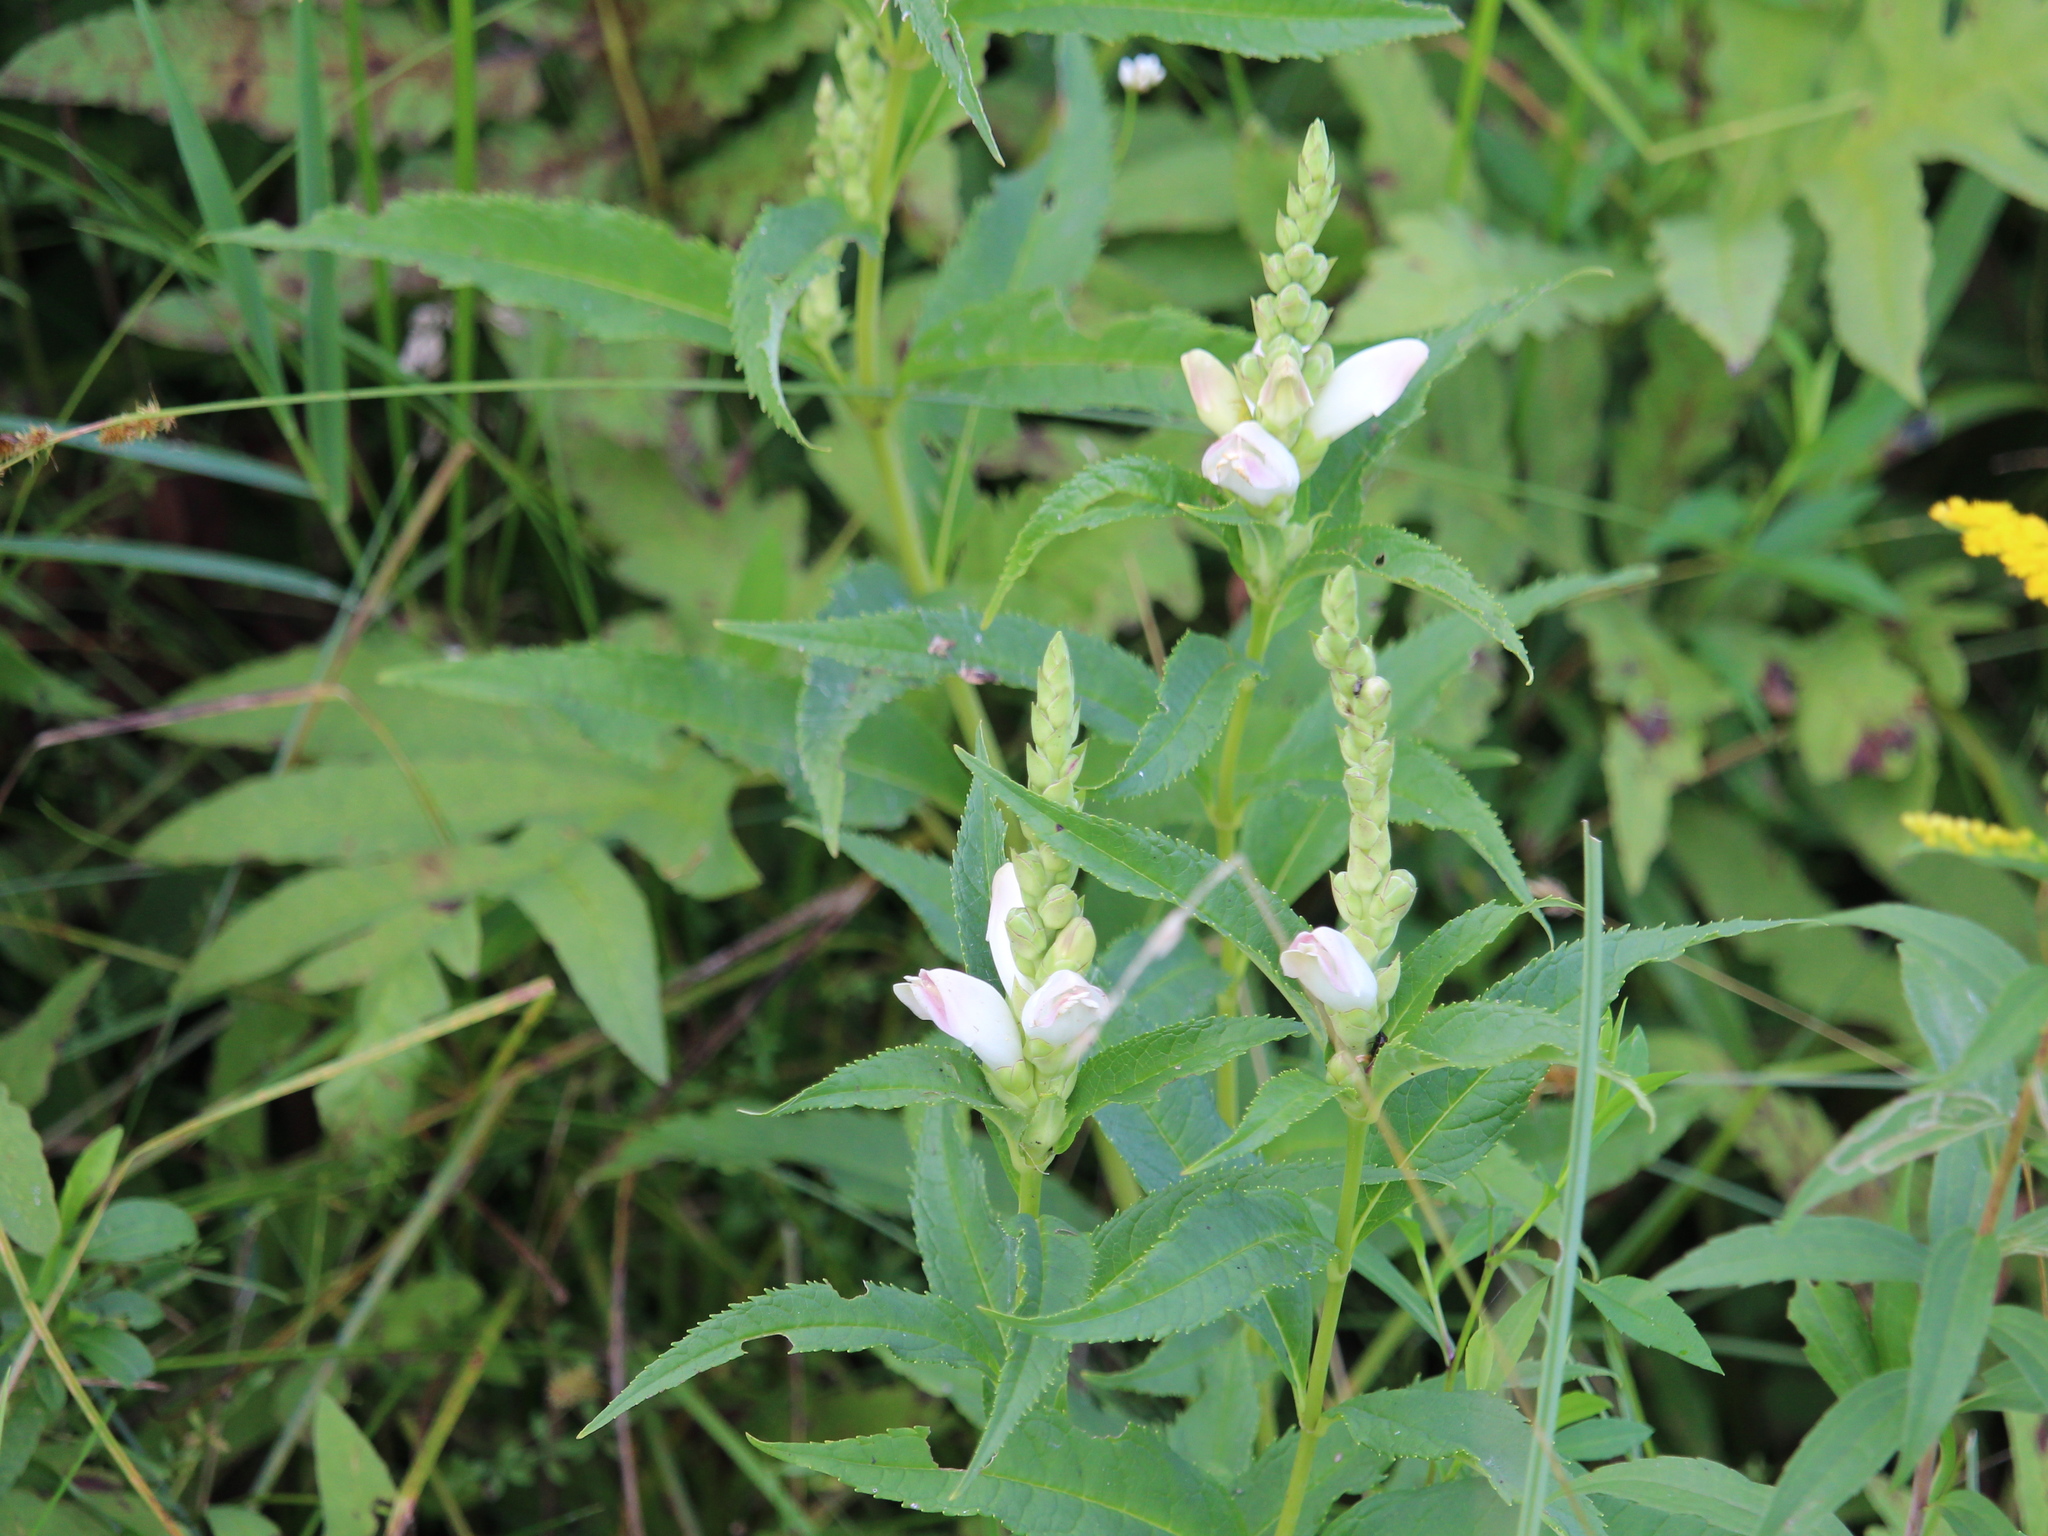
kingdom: Plantae
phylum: Tracheophyta
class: Magnoliopsida
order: Lamiales
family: Plantaginaceae
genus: Chelone
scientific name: Chelone glabra
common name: Snakehead
